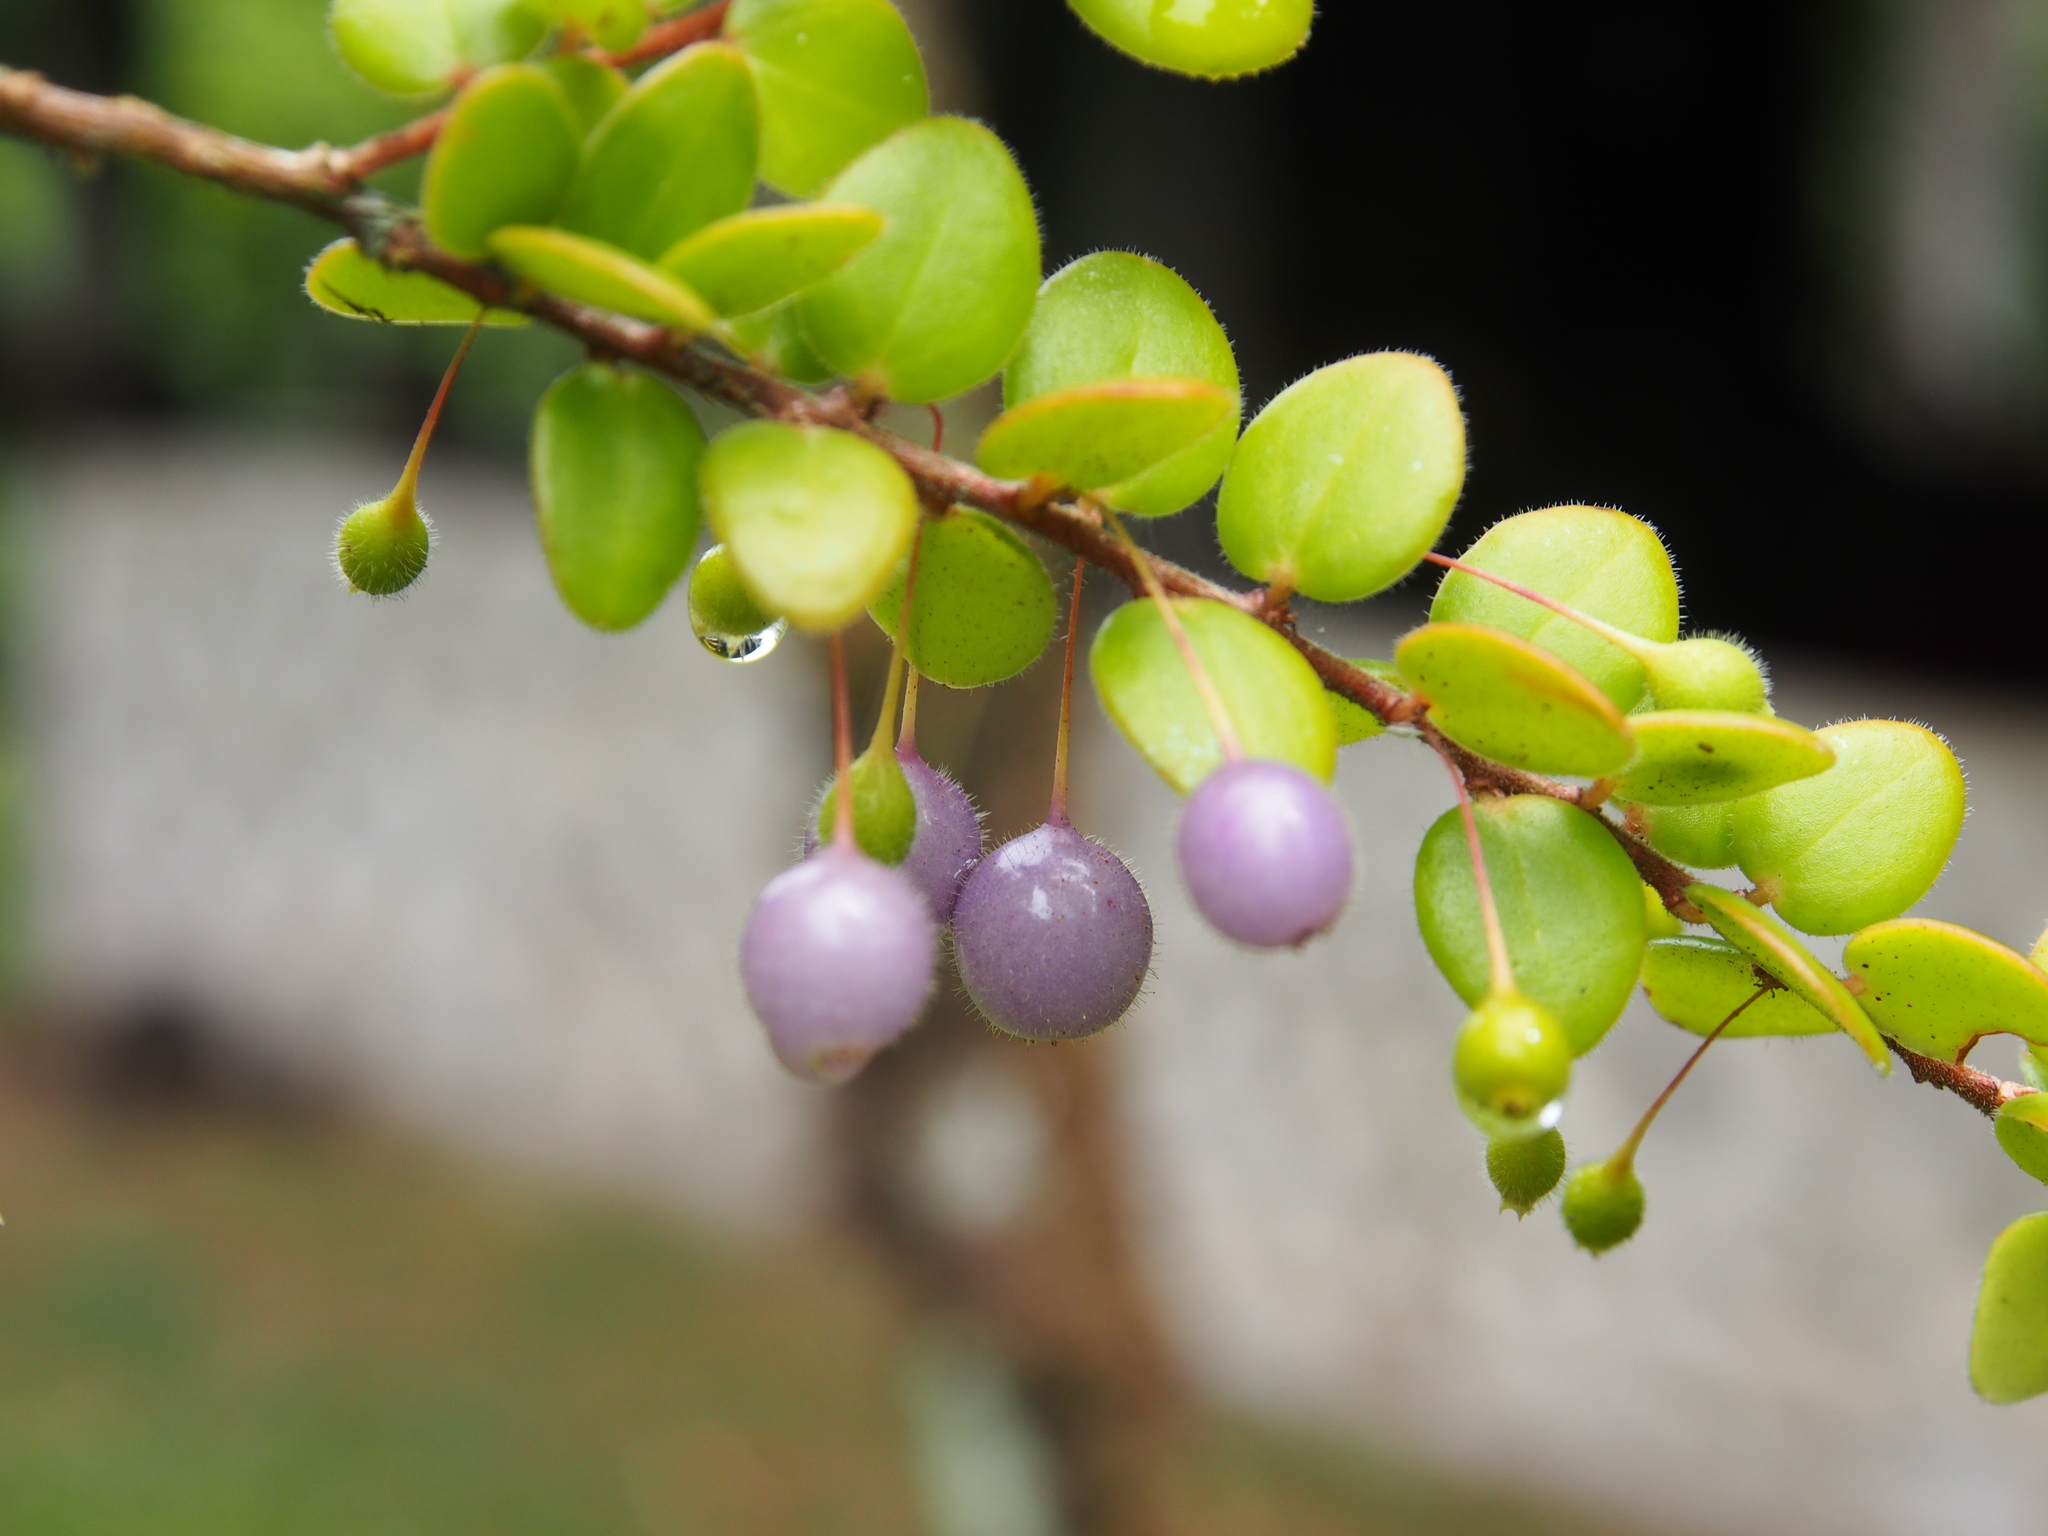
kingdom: Plantae
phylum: Tracheophyta
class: Magnoliopsida
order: Ericales
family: Ericaceae
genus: Sphyrospermum
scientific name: Sphyrospermum buxifolium
